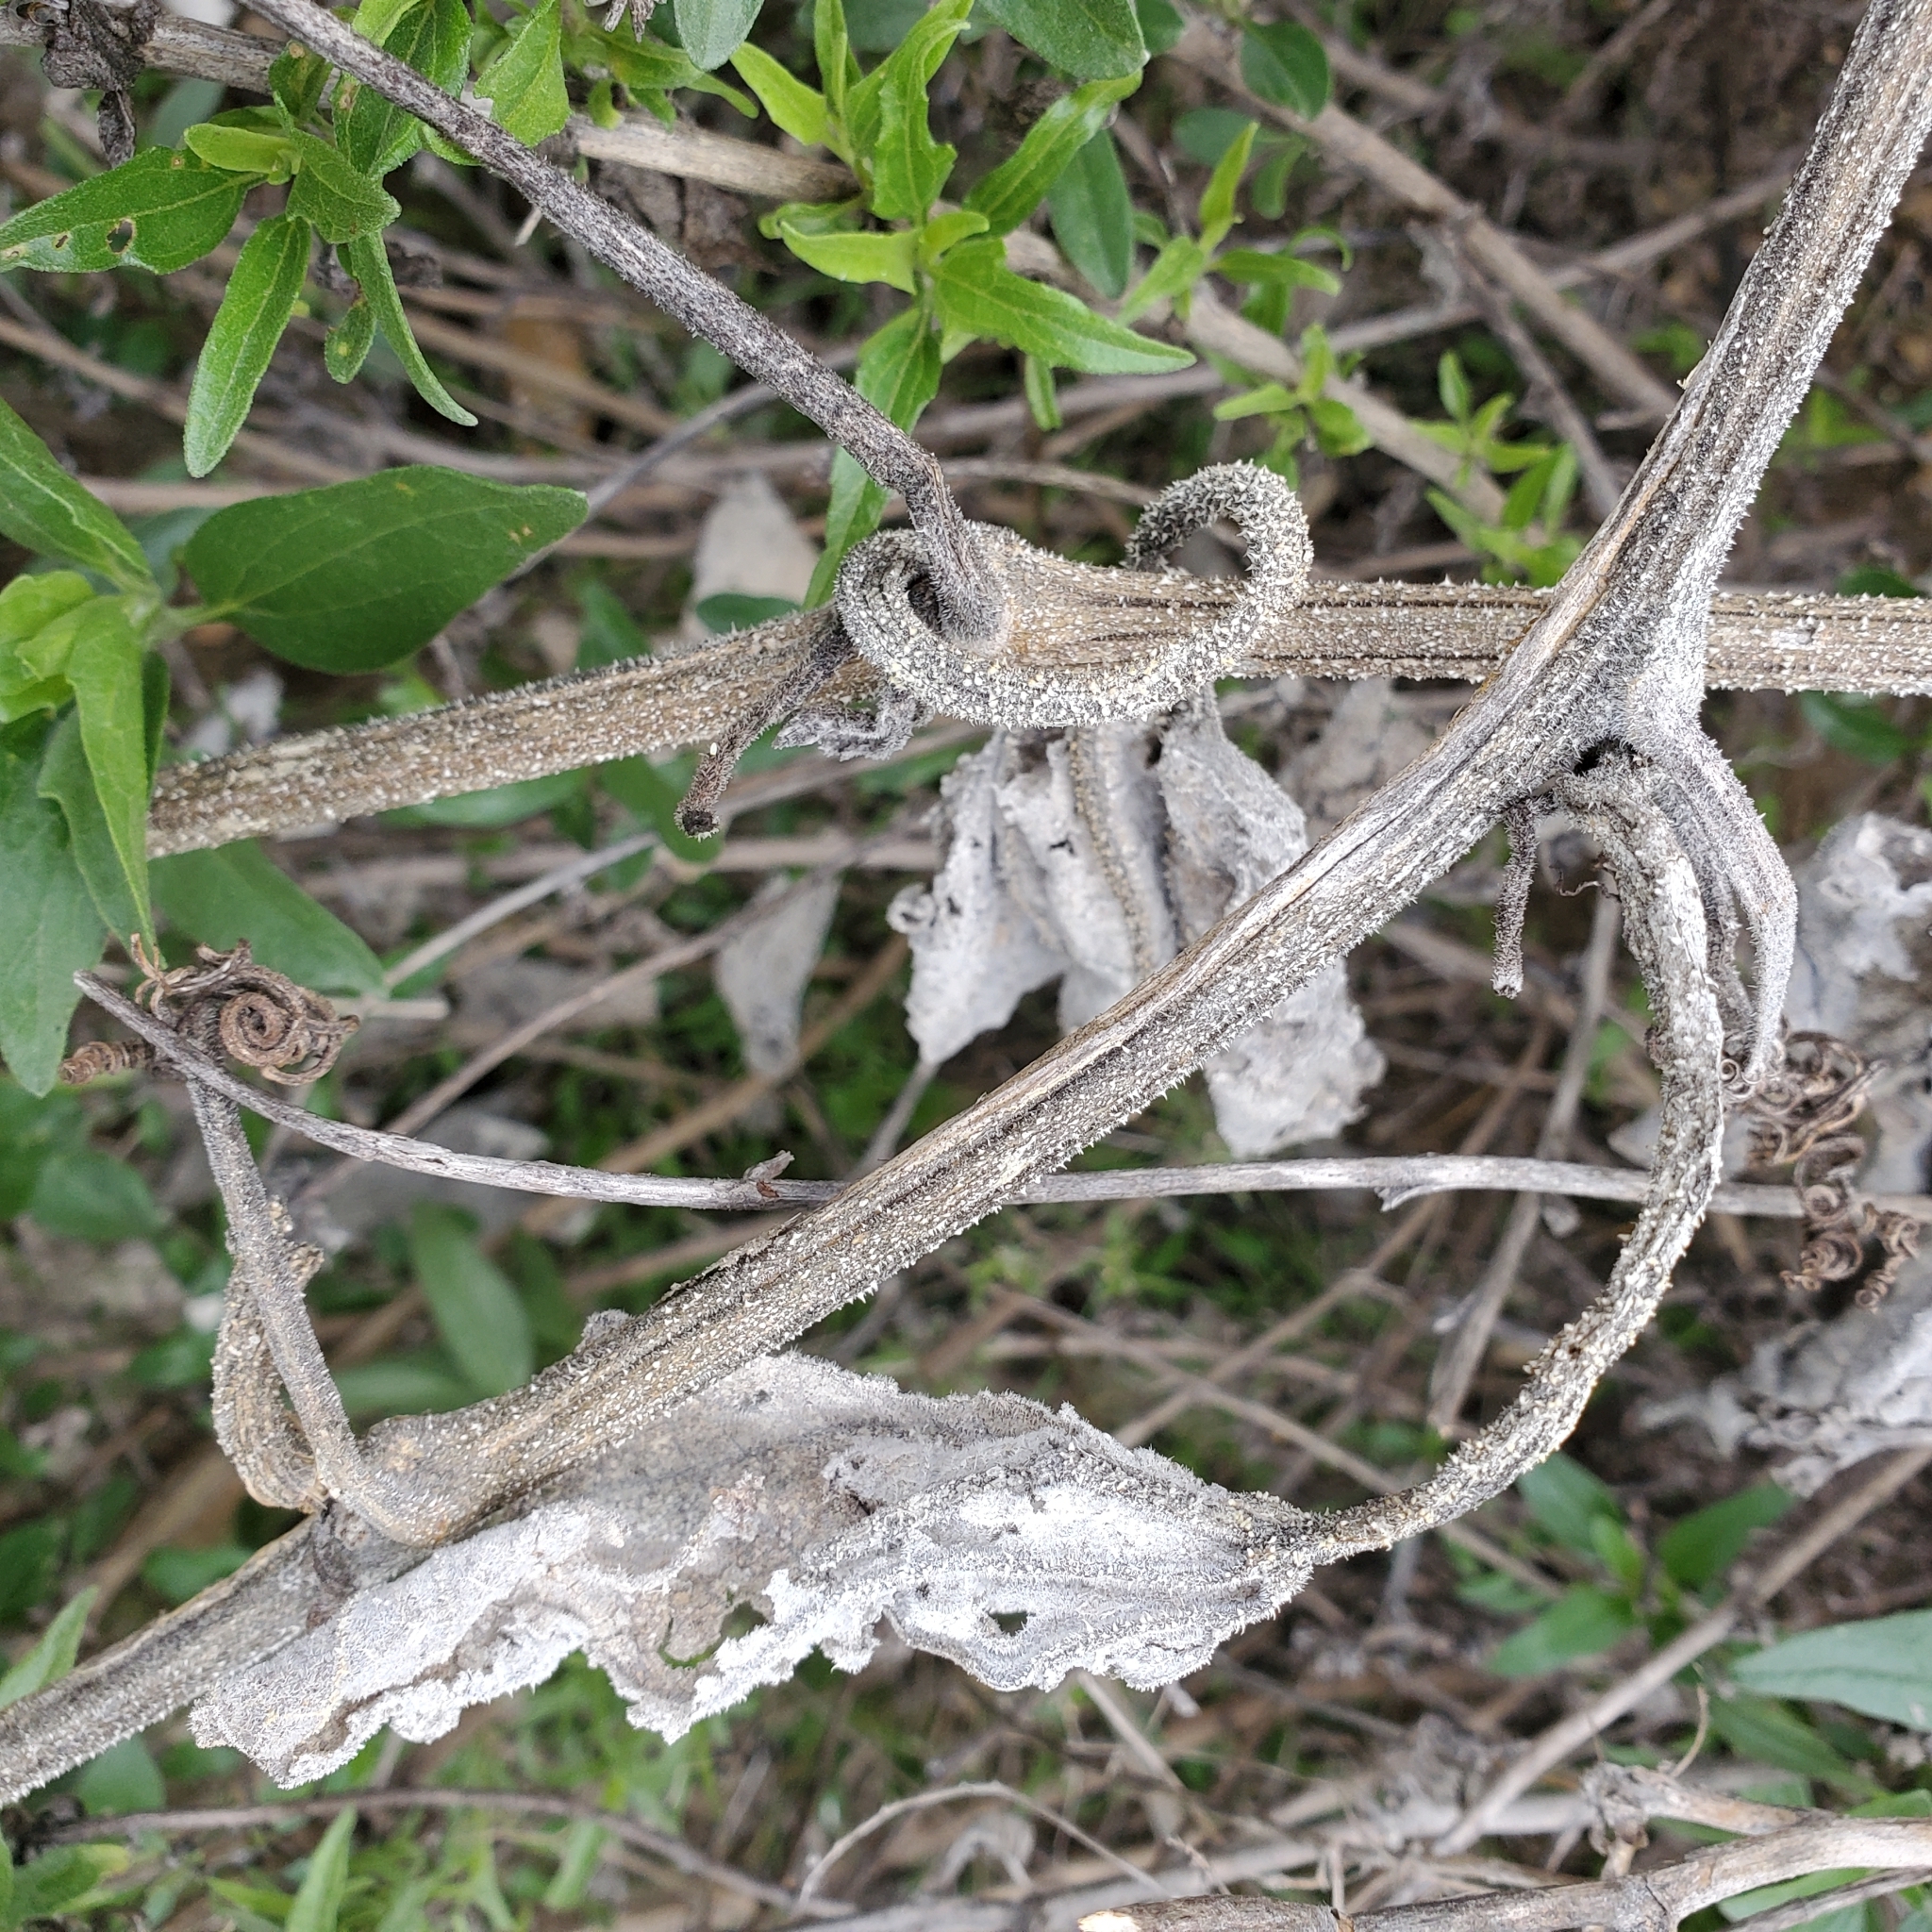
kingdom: Plantae
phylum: Tracheophyta
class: Magnoliopsida
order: Cucurbitales
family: Cucurbitaceae
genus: Cucurbita
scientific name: Cucurbita foetidissima
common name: Buffalo gourd
